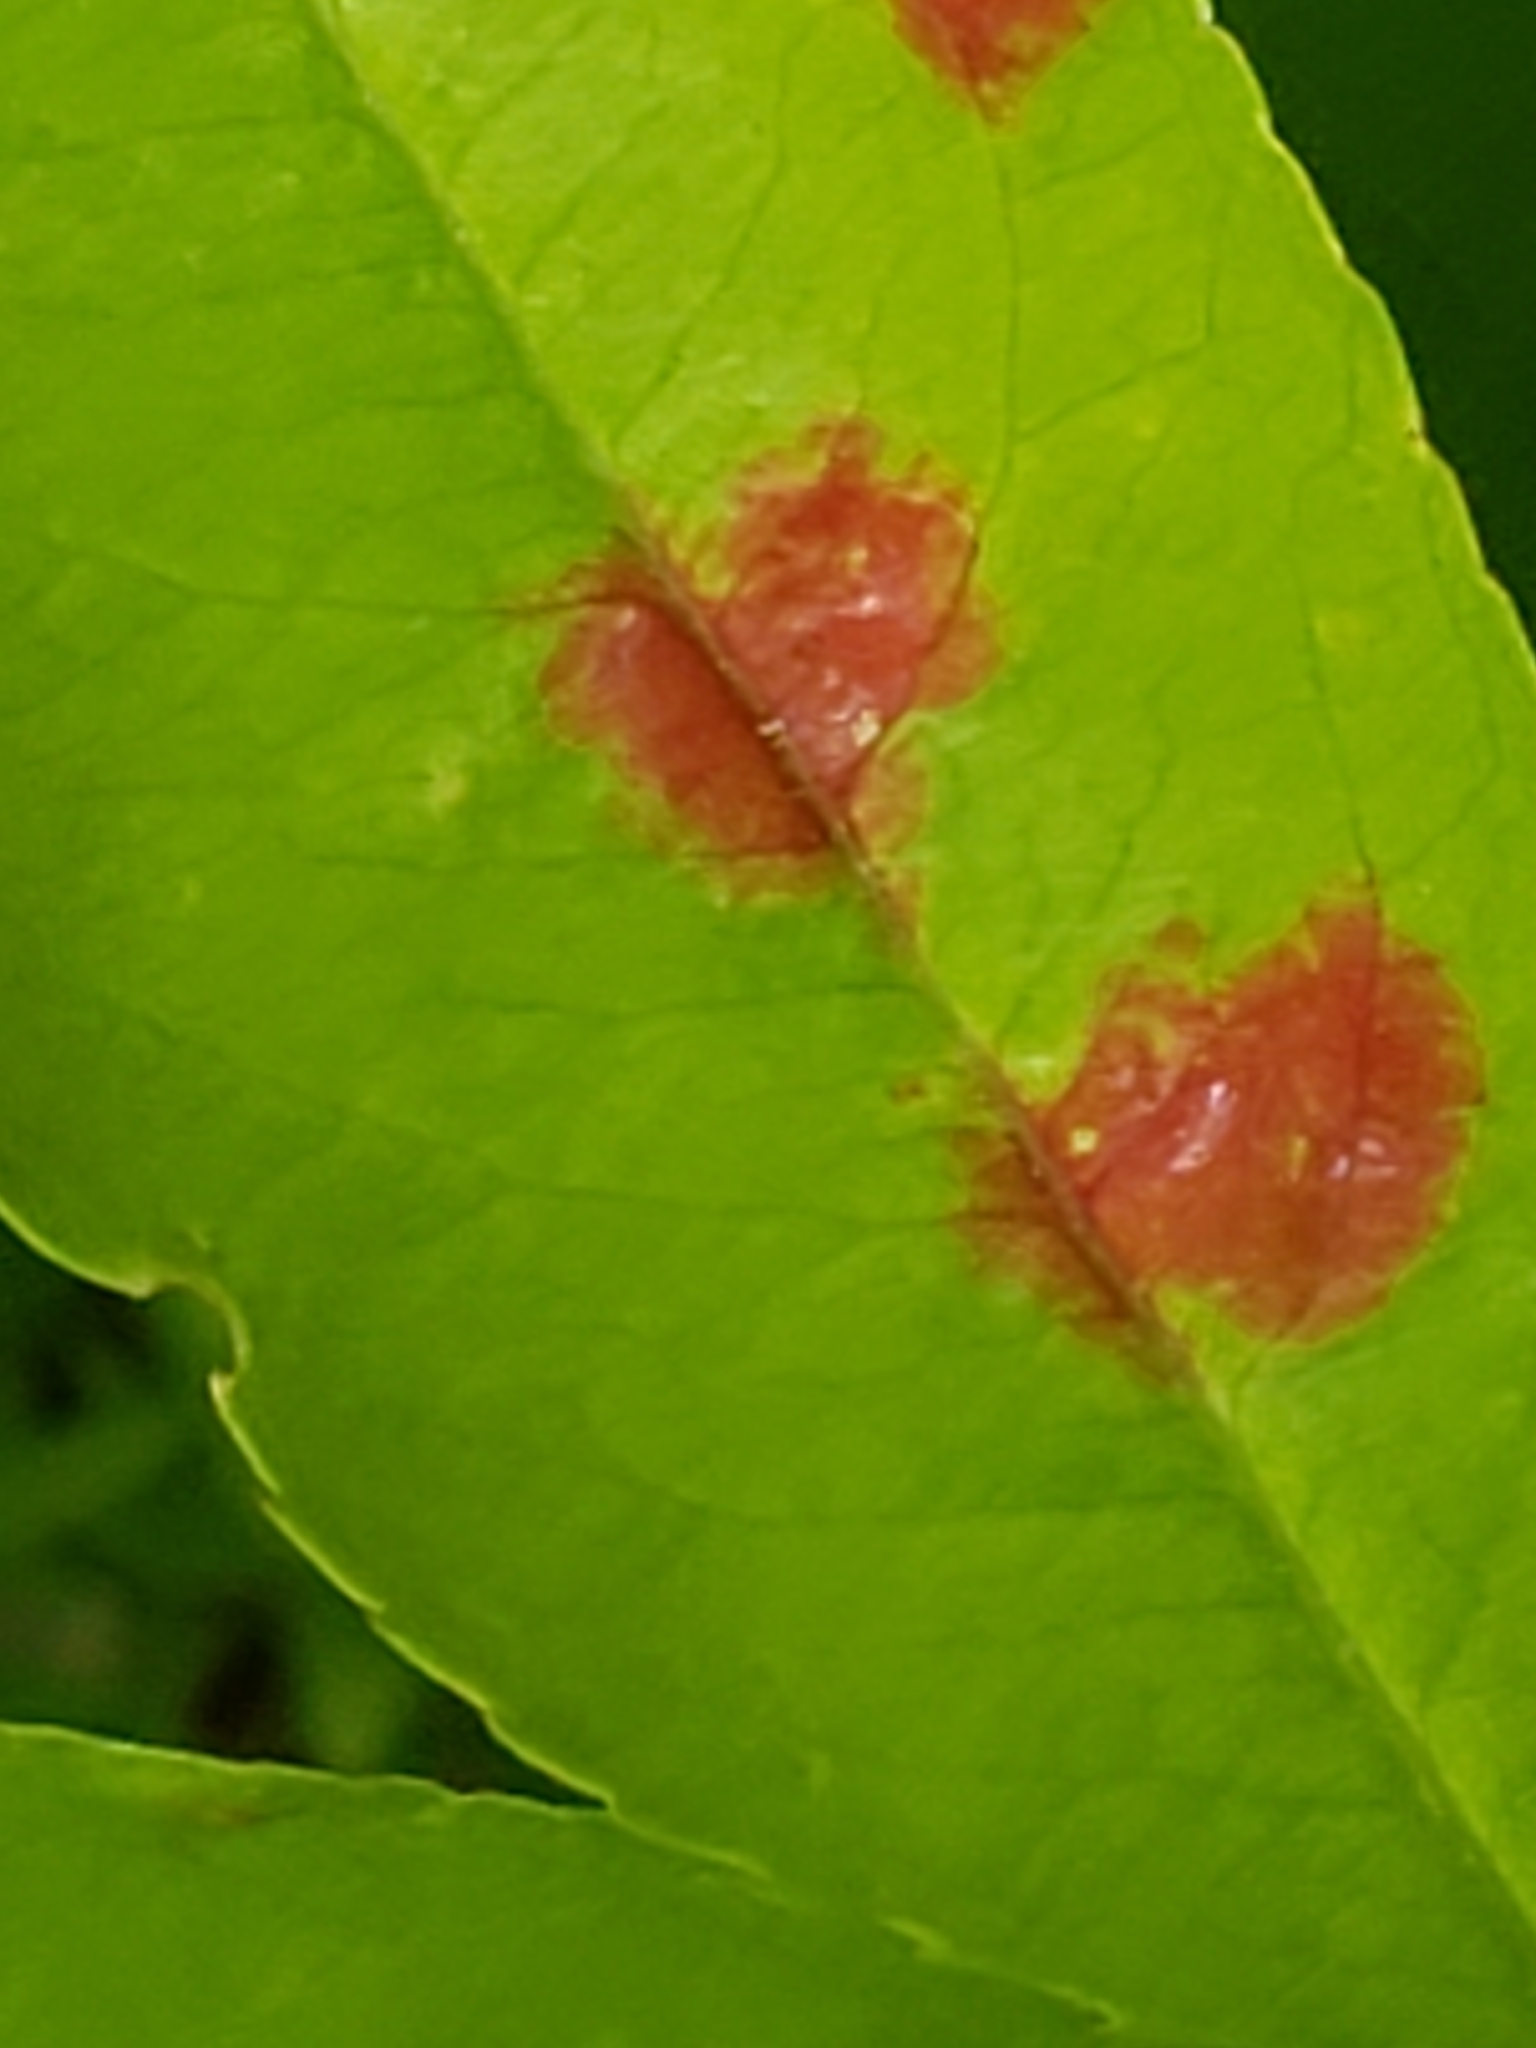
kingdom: Fungi
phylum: Ascomycota
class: Taphrinomycetes
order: Taphrinales
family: Taphrinaceae
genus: Taphrina
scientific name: Taphrina farlowii
